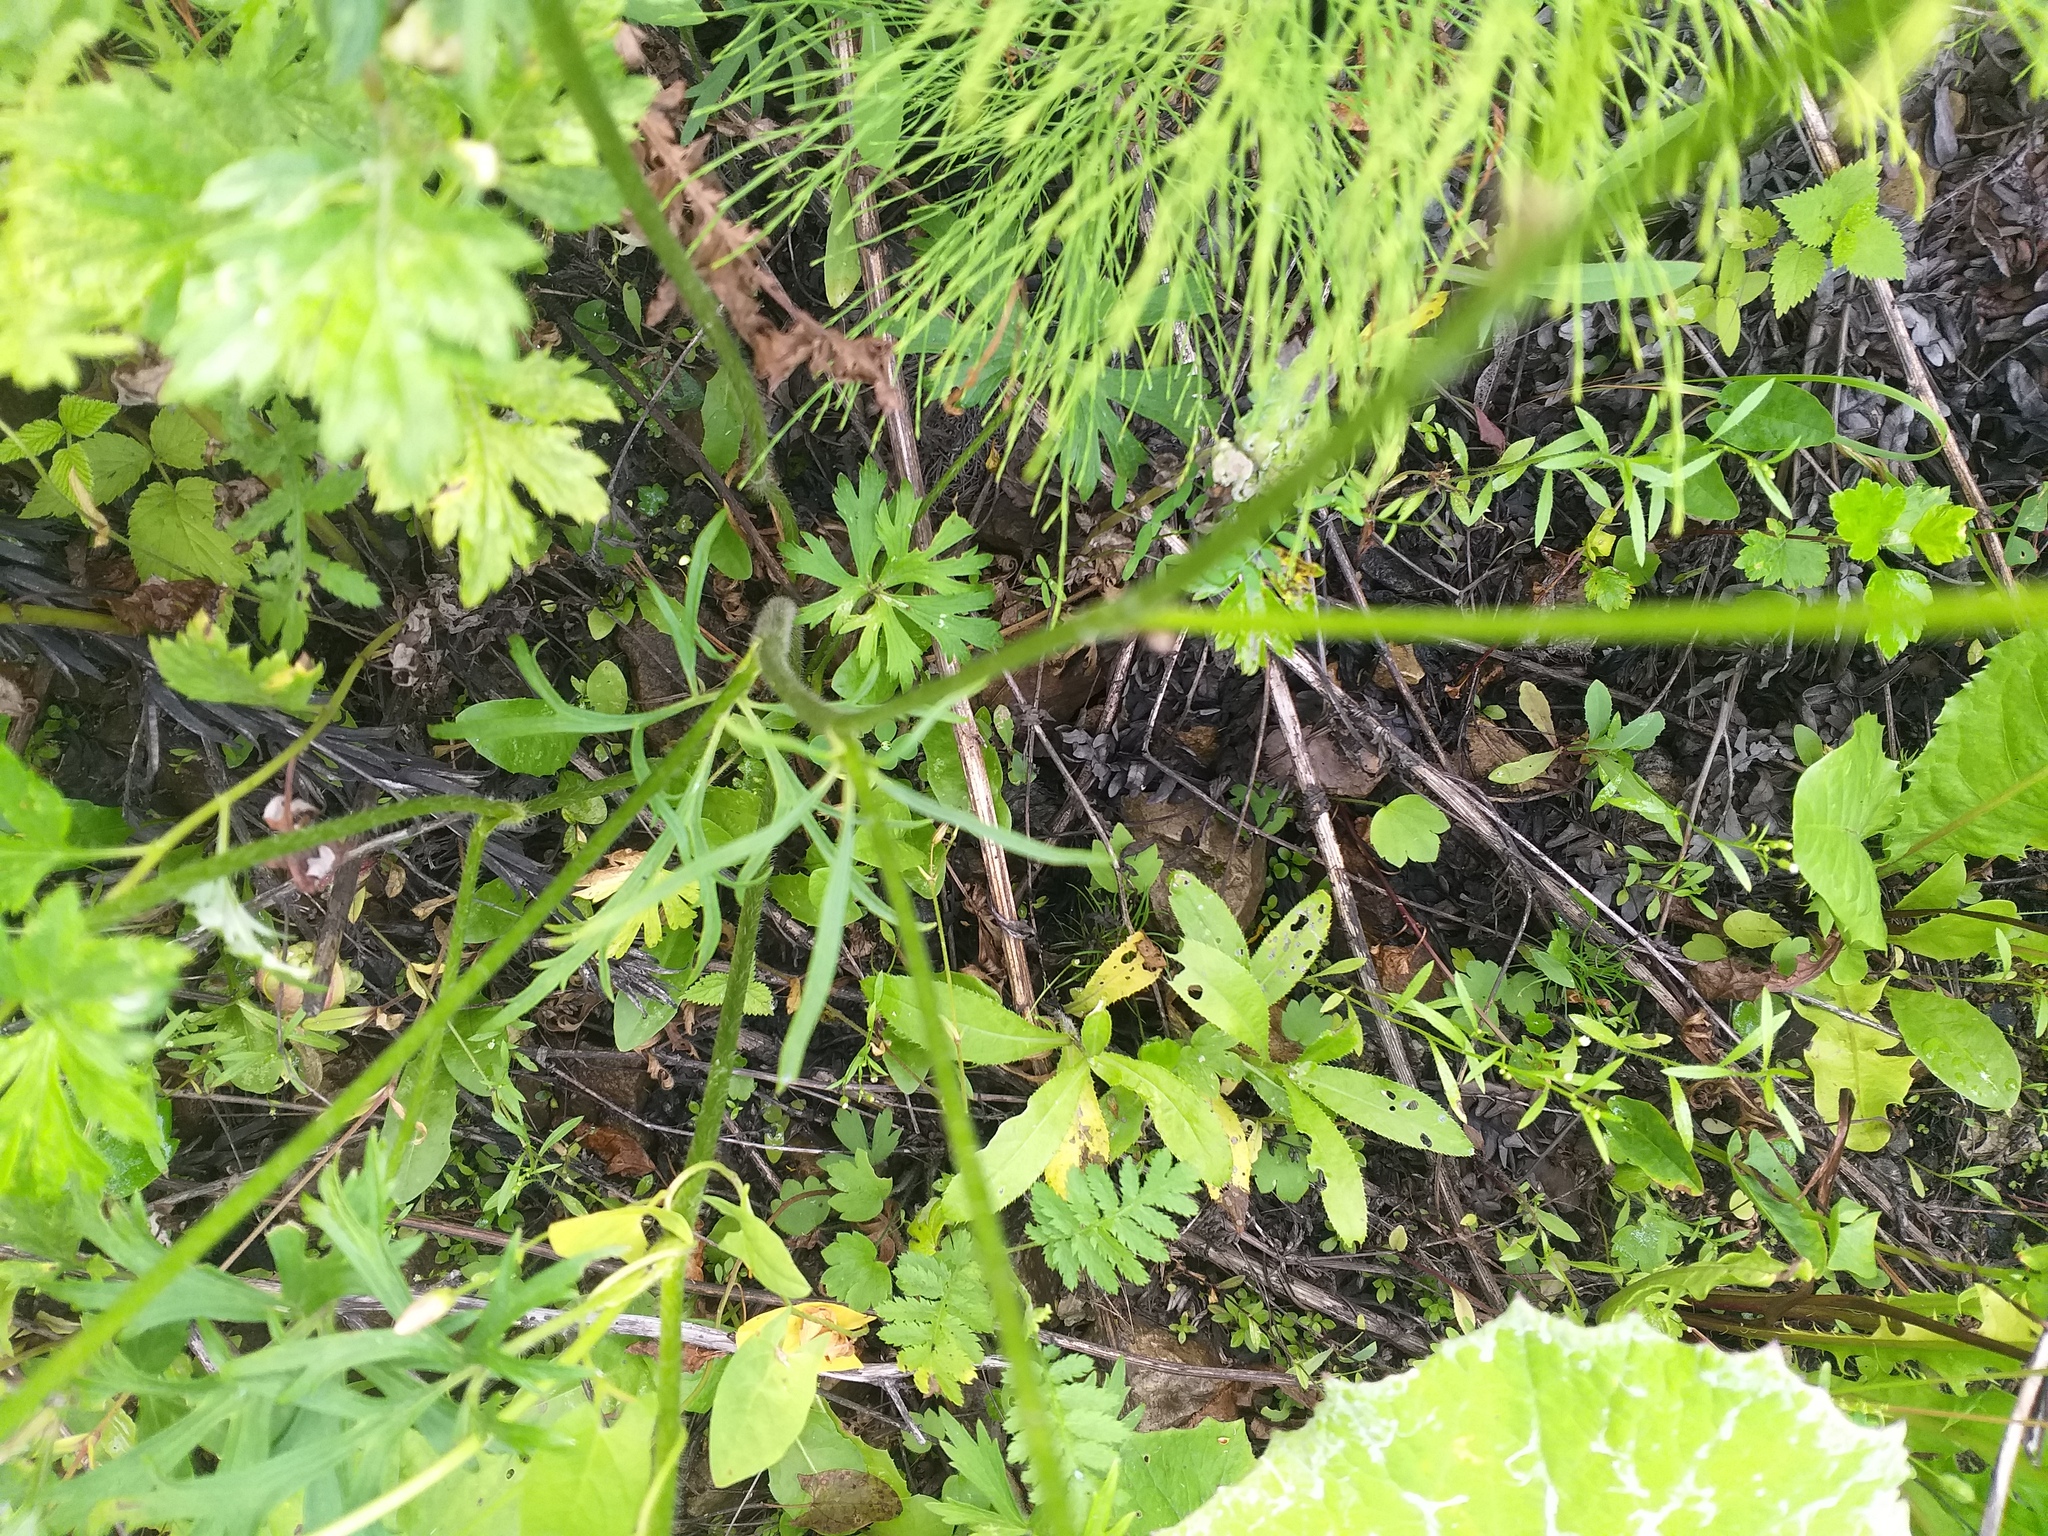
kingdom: Plantae
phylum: Tracheophyta
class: Magnoliopsida
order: Ranunculales
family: Ranunculaceae
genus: Ranunculus
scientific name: Ranunculus polyanthemos
